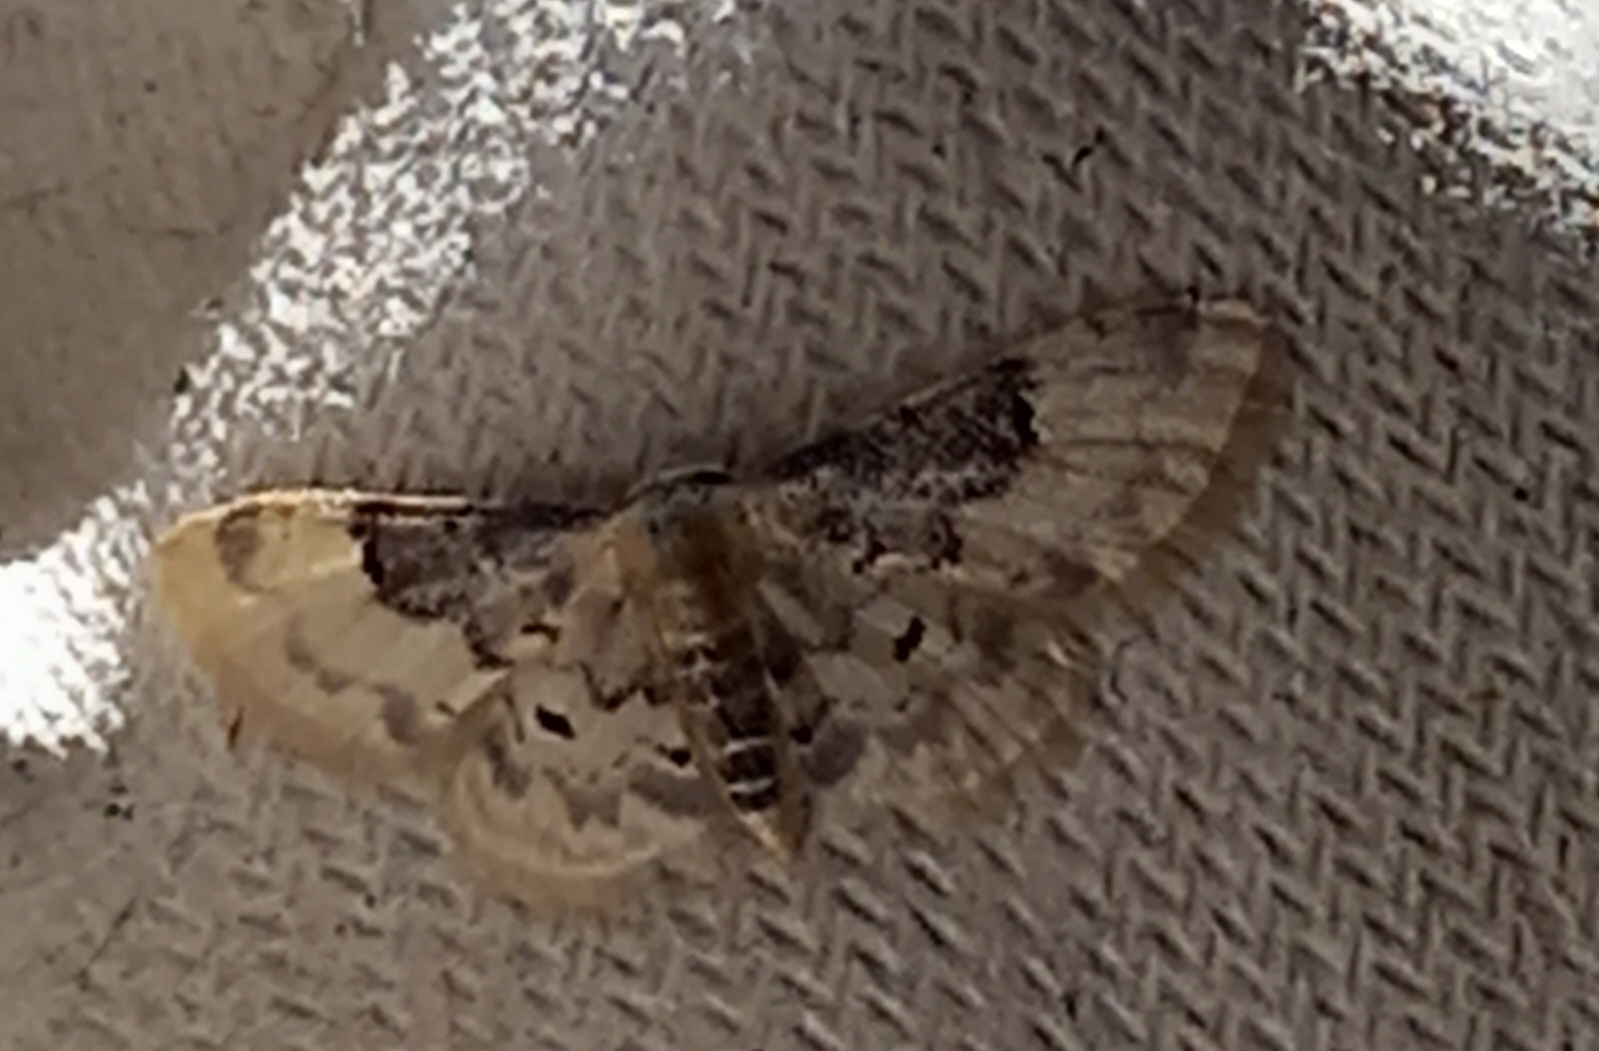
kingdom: Animalia
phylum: Arthropoda
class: Insecta
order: Lepidoptera
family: Geometridae
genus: Idaea
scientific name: Idaea filicata
